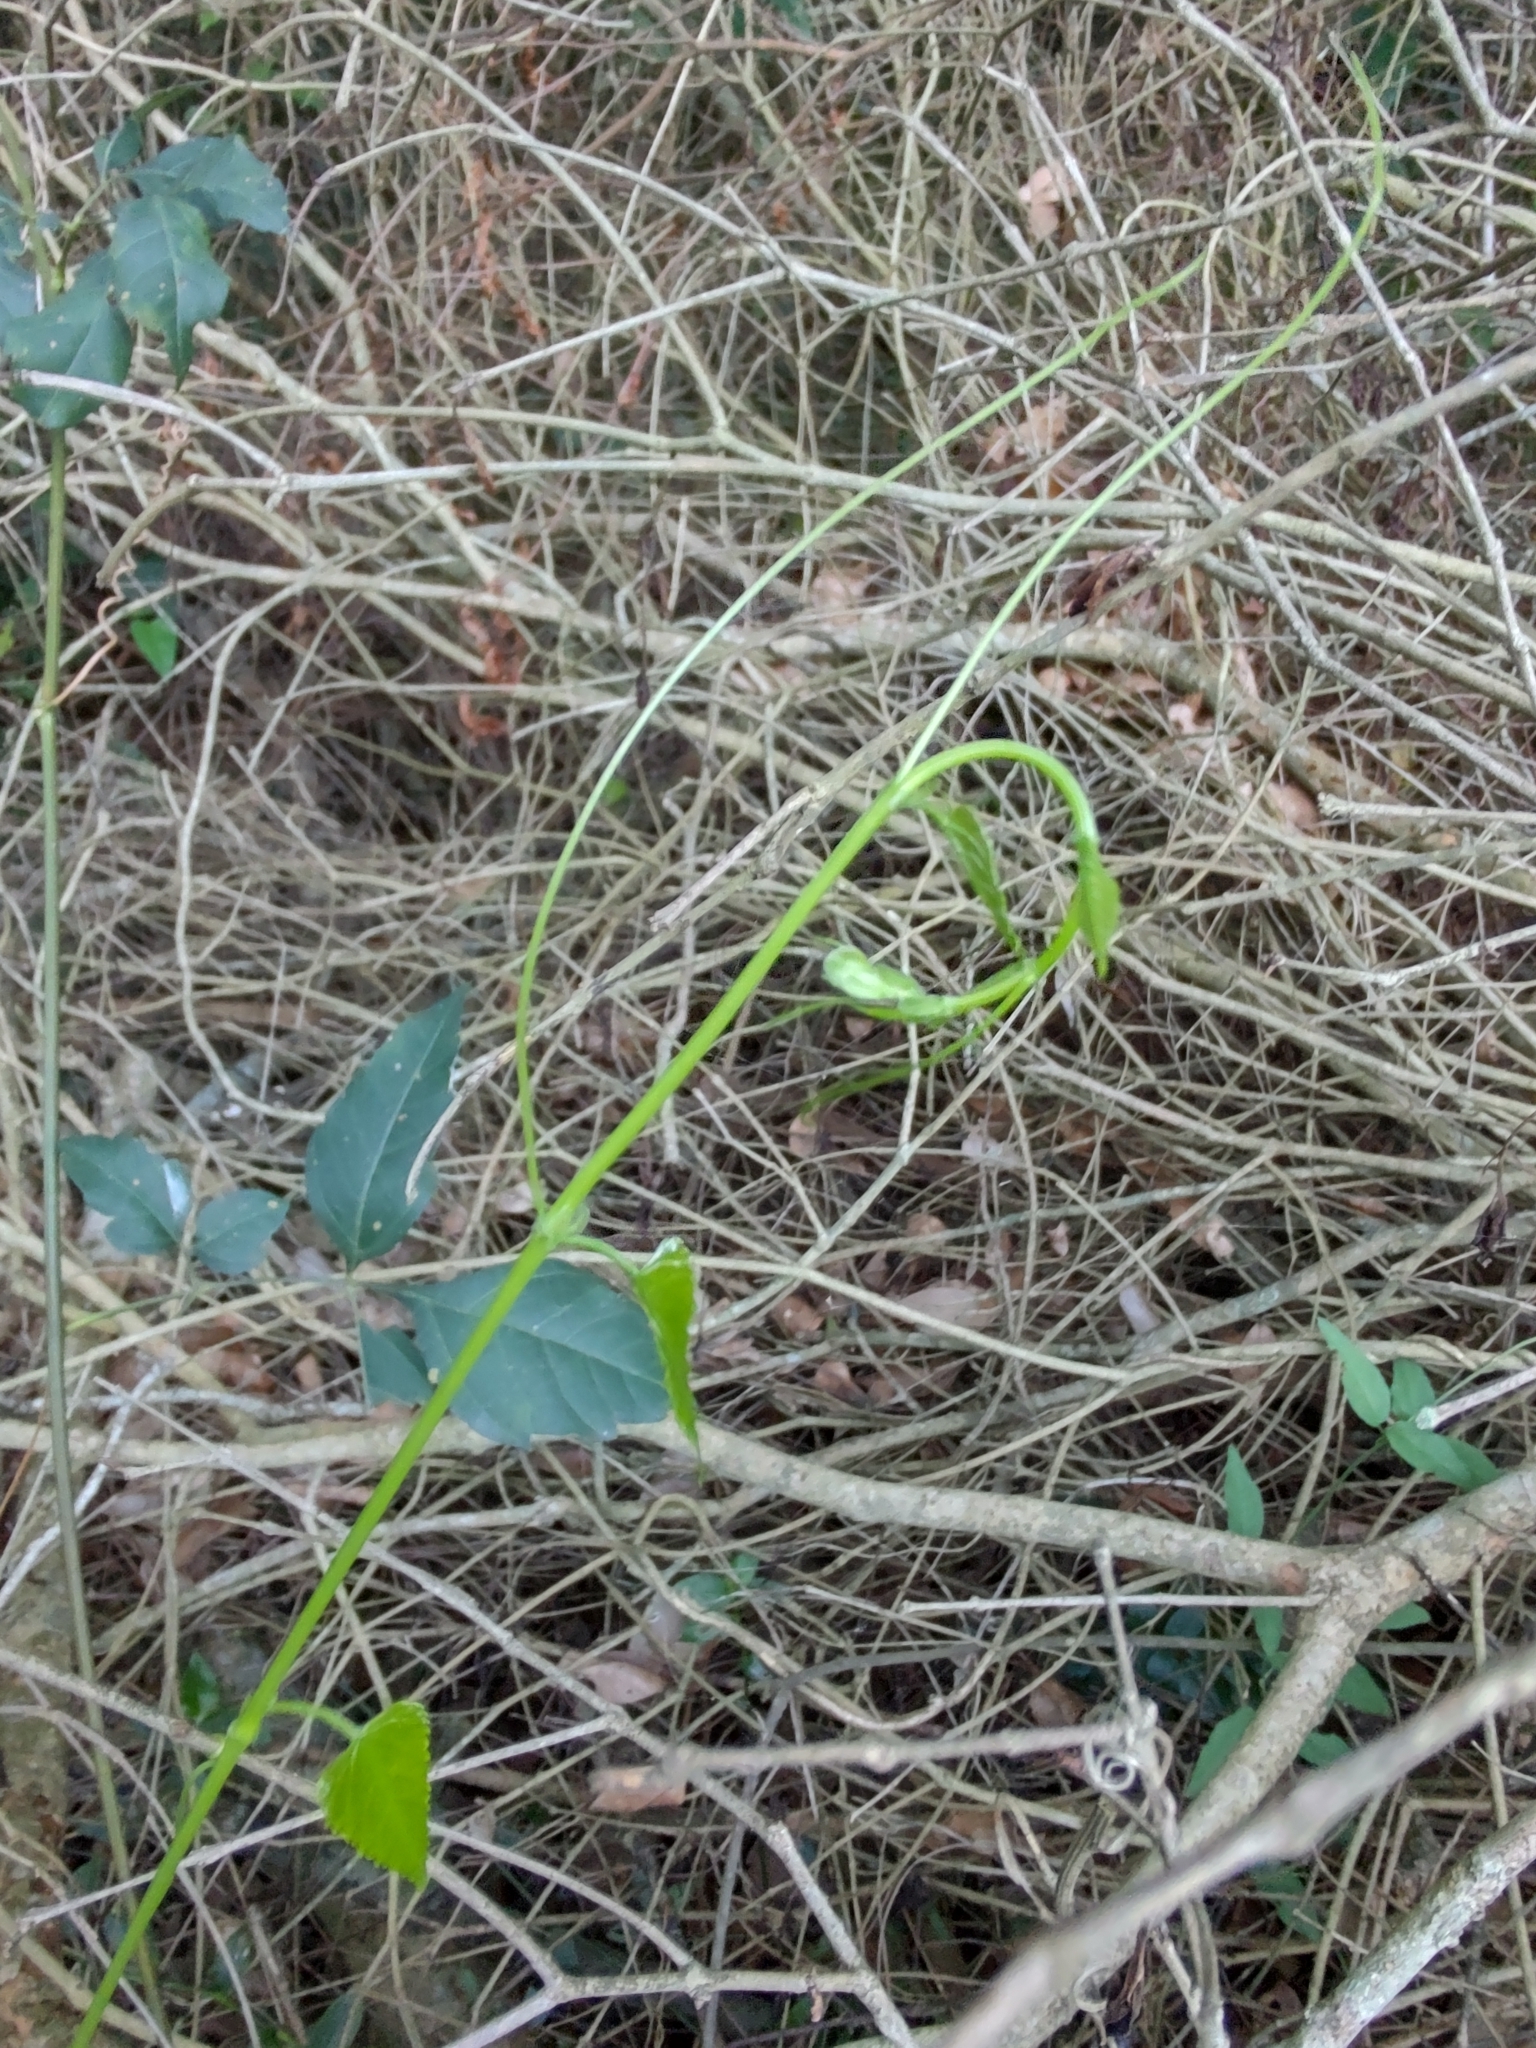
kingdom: Plantae
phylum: Tracheophyta
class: Magnoliopsida
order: Vitales
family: Vitaceae
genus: Cissus
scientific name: Cissus verticillata
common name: Princess vine
